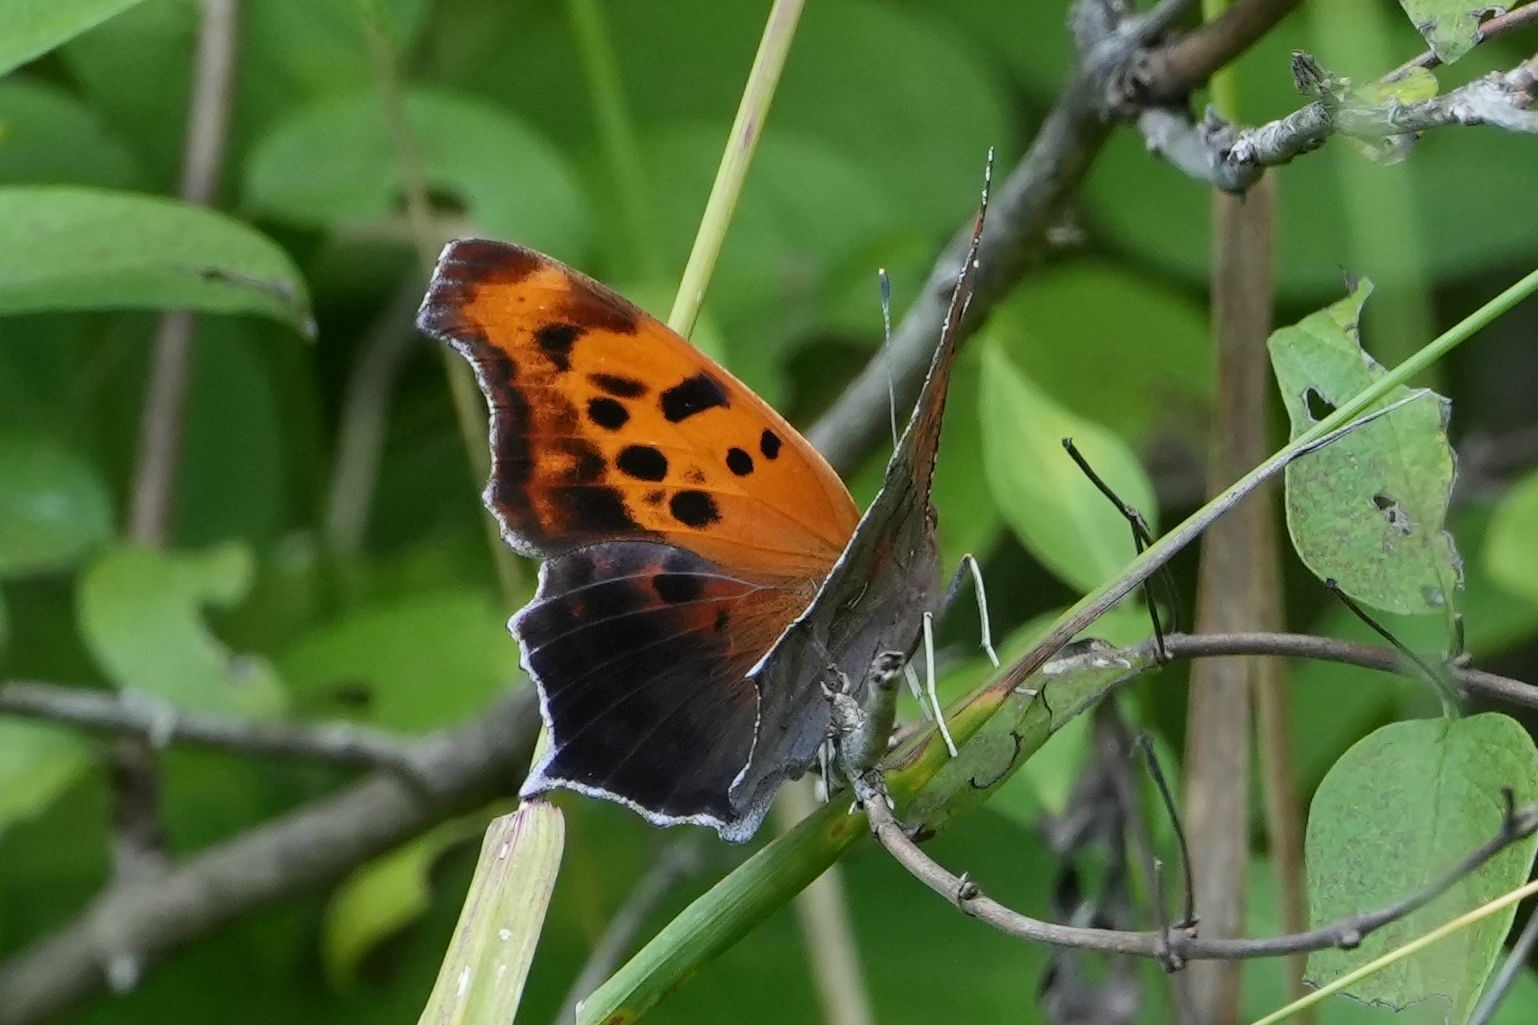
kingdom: Animalia
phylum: Arthropoda
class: Insecta
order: Lepidoptera
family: Nymphalidae
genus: Polygonia
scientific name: Polygonia interrogationis
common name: Question mark
